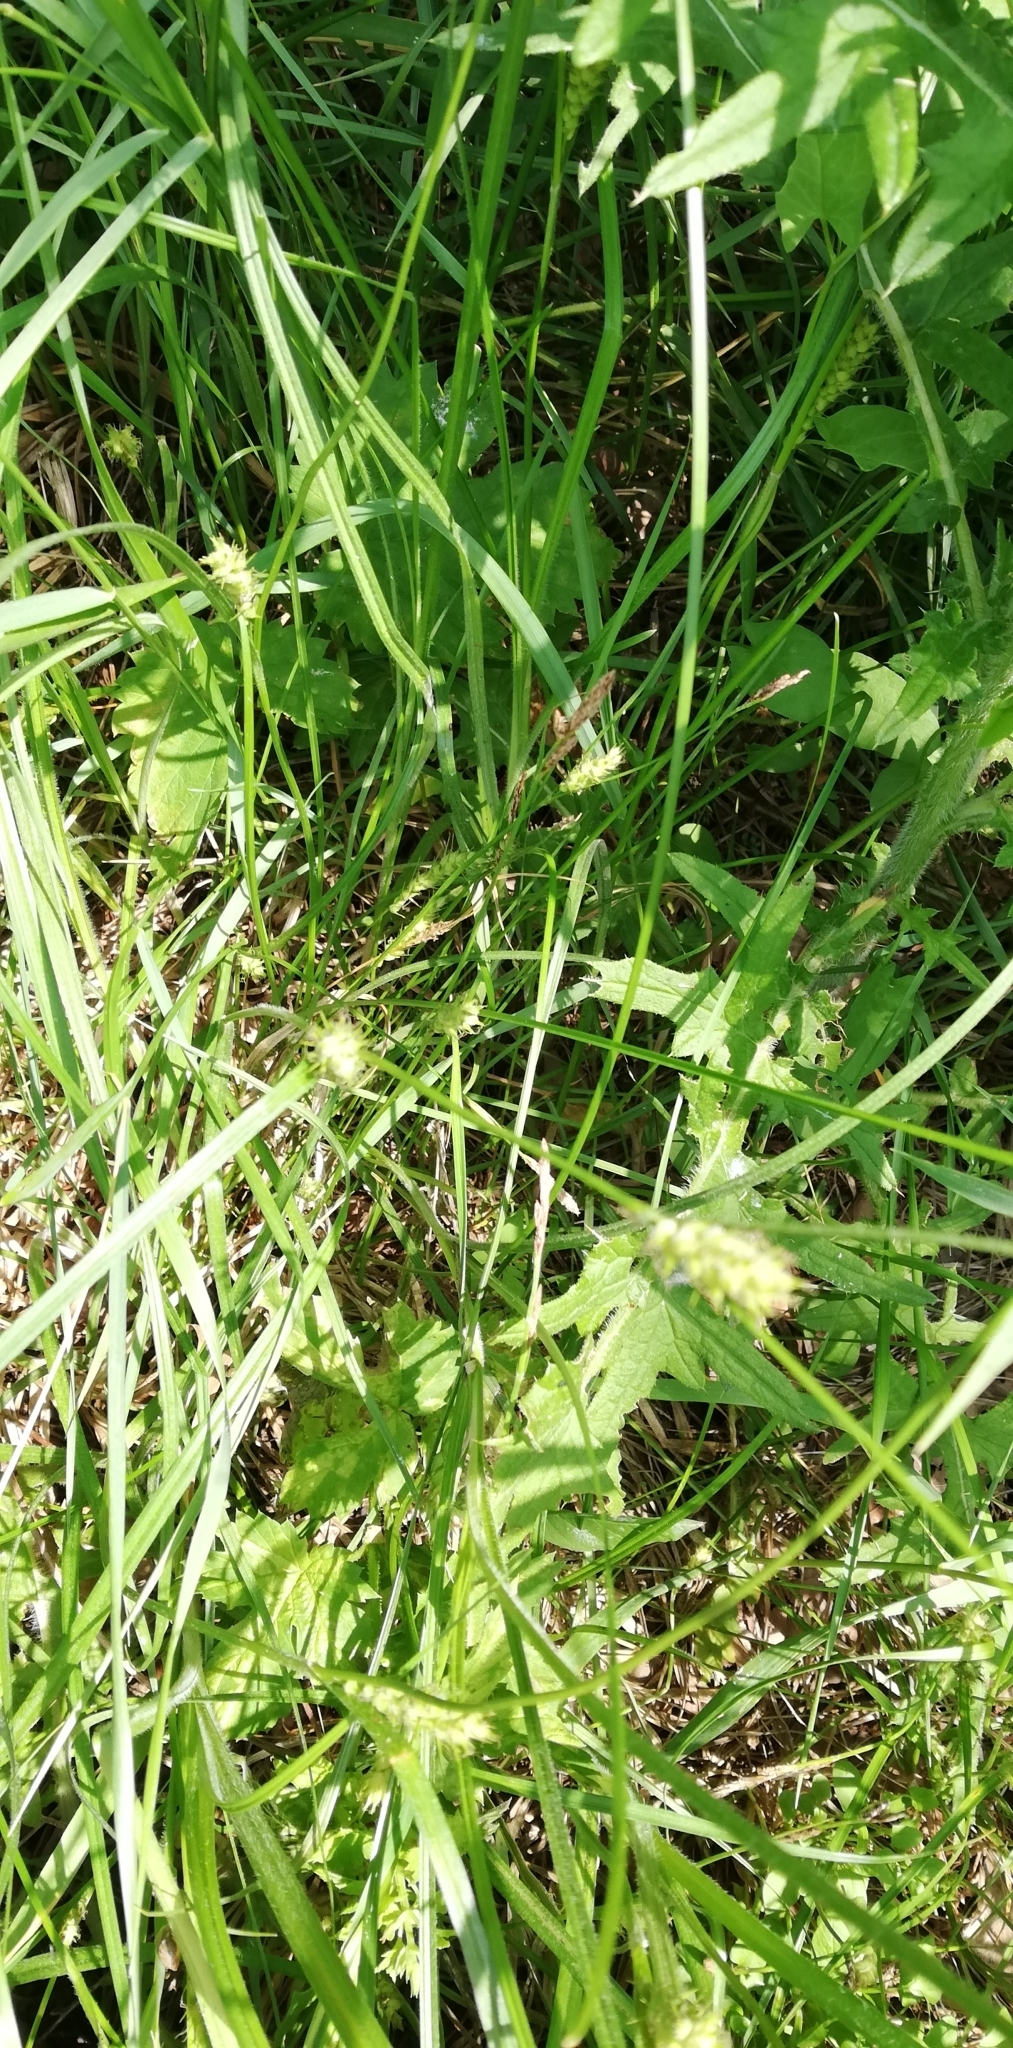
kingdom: Plantae
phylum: Tracheophyta
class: Liliopsida
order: Poales
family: Cyperaceae
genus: Carex
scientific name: Carex hirta
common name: Hairy sedge
